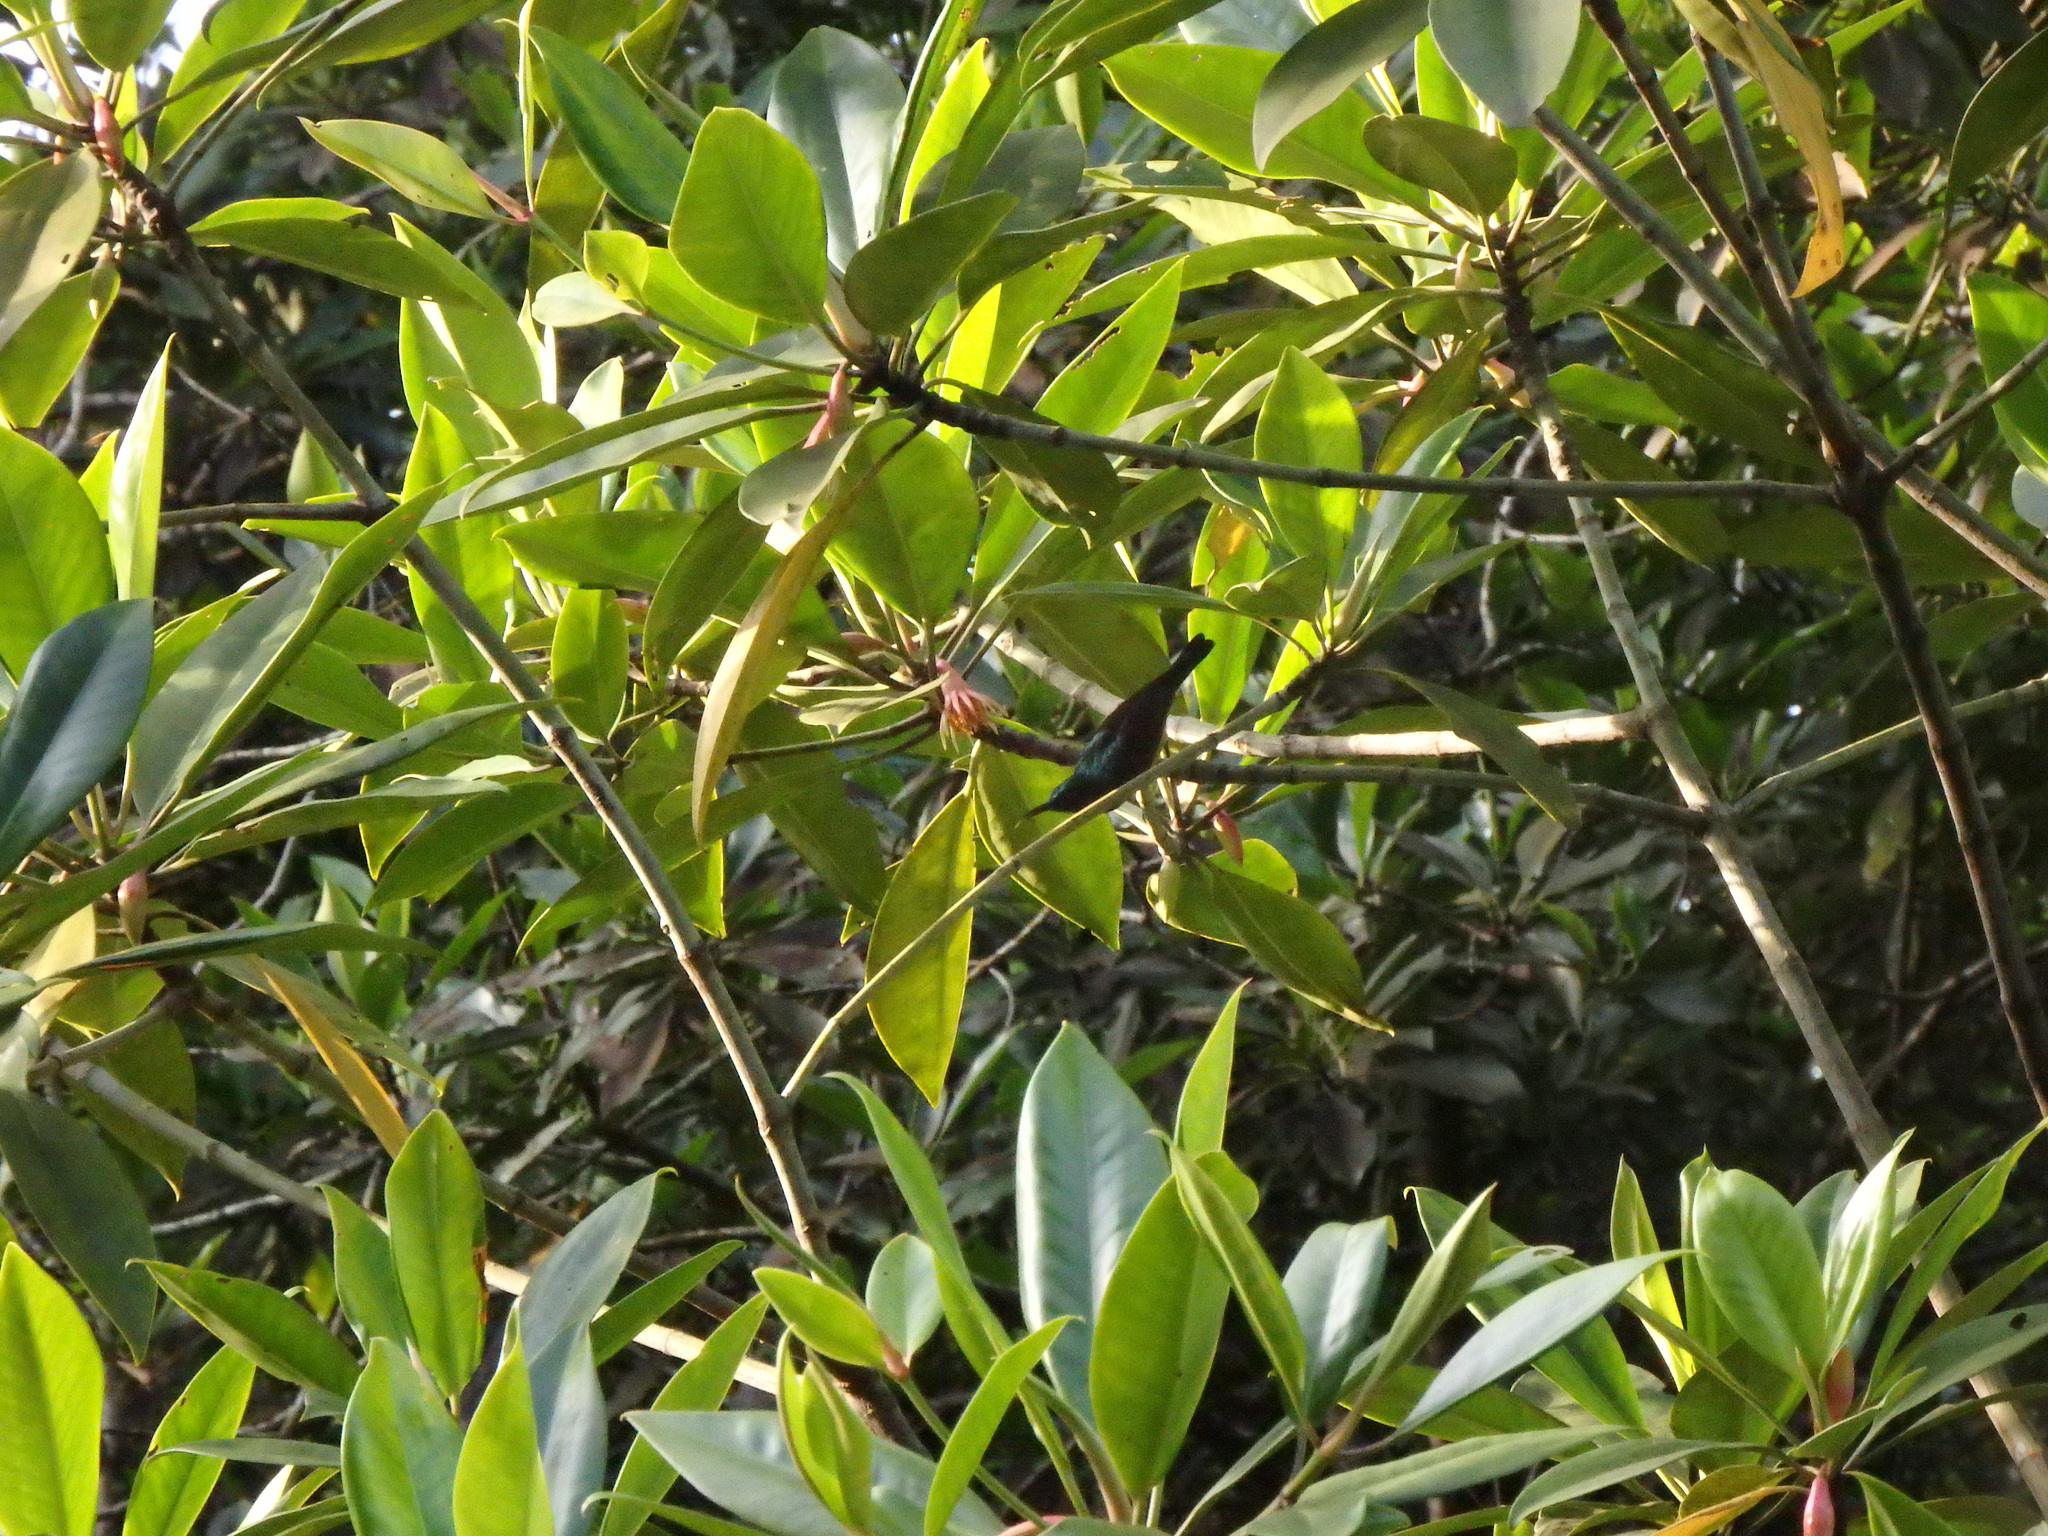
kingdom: Animalia
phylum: Chordata
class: Aves
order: Passeriformes
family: Nectariniidae
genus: Anthreptes
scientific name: Anthreptes malacensis
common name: Brown-throated sunbird
